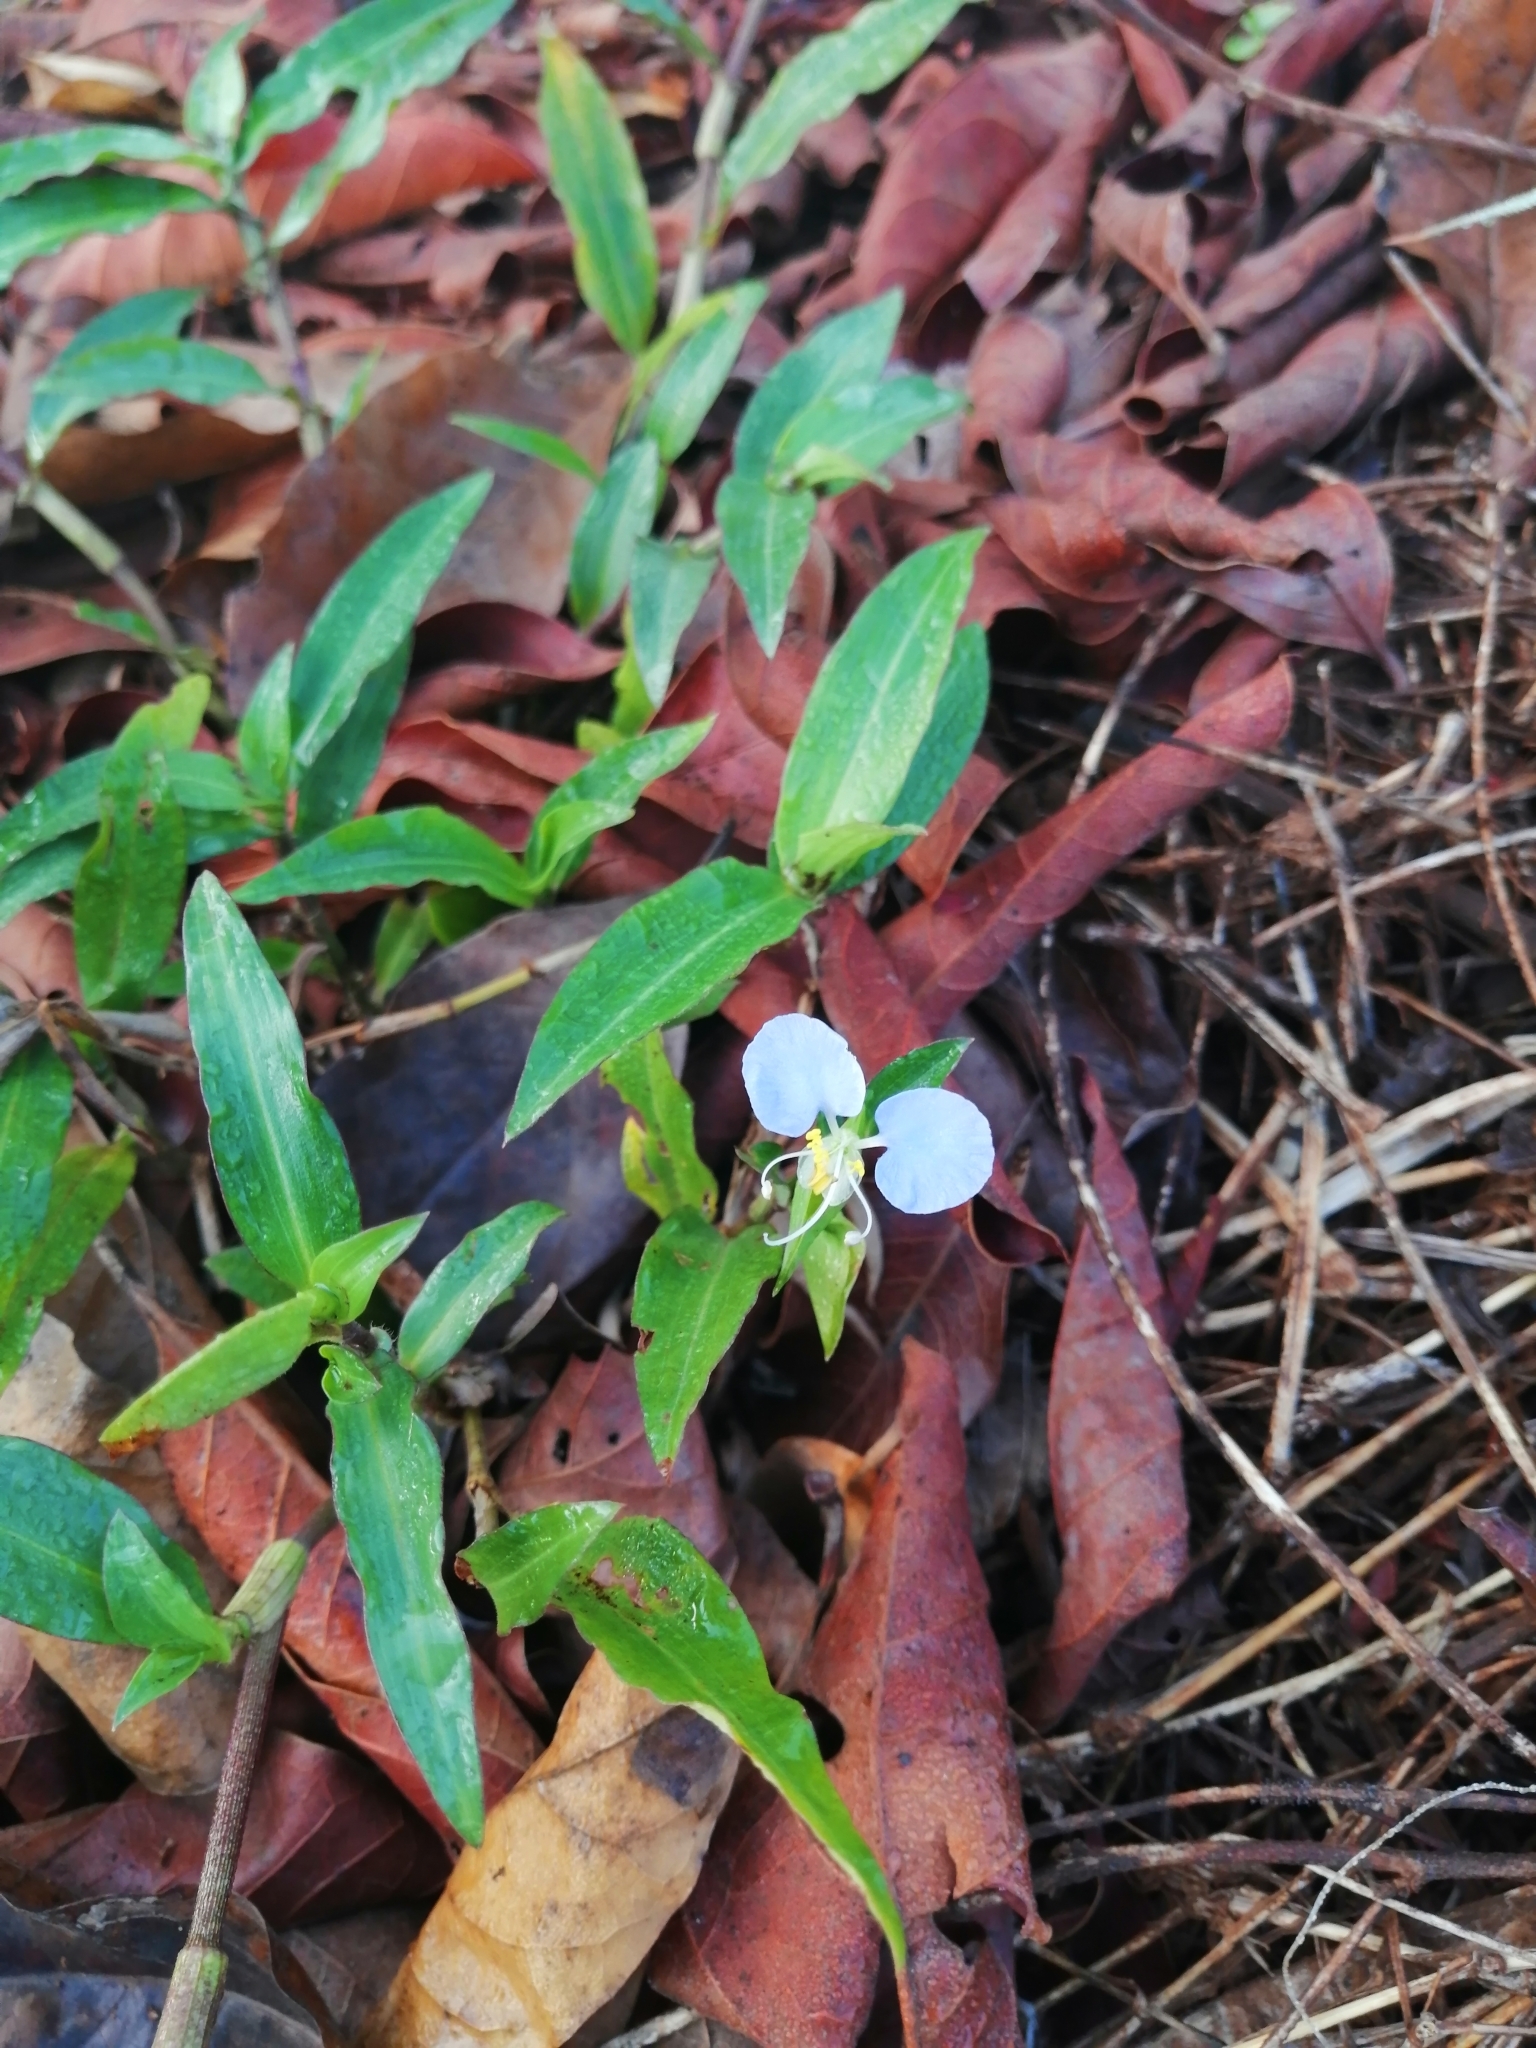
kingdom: Plantae
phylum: Tracheophyta
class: Liliopsida
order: Commelinales
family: Commelinaceae
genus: Commelina
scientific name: Commelina erecta
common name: Blousel blommetjie
